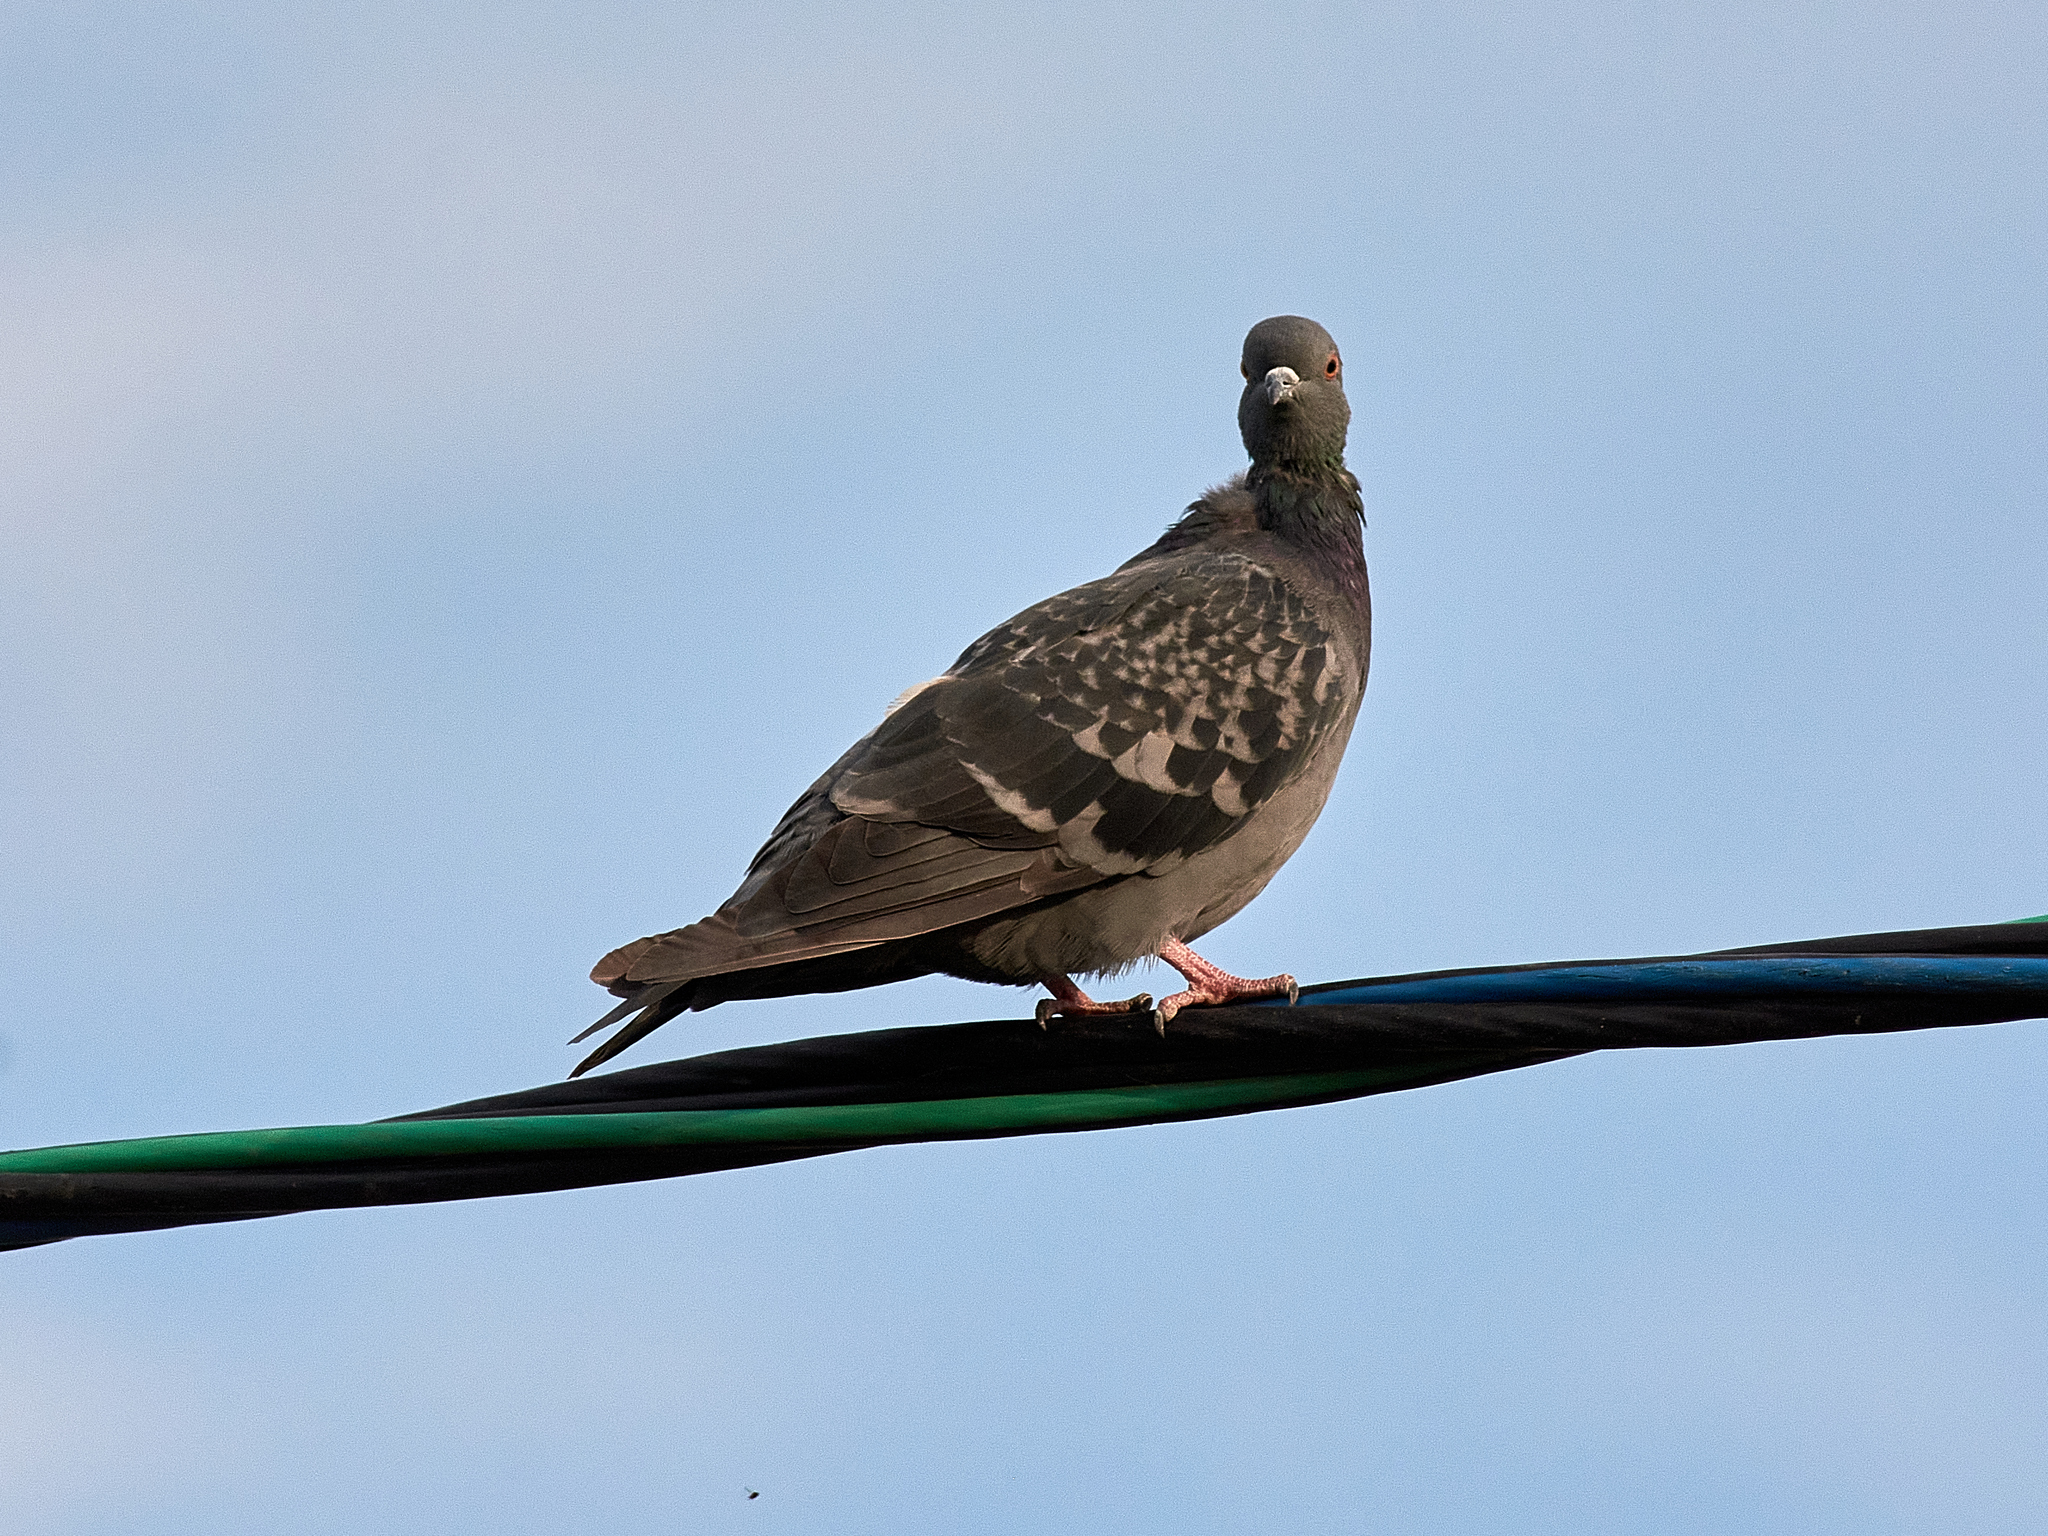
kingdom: Animalia
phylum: Chordata
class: Aves
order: Columbiformes
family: Columbidae
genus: Columba
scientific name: Columba livia
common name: Rock pigeon
